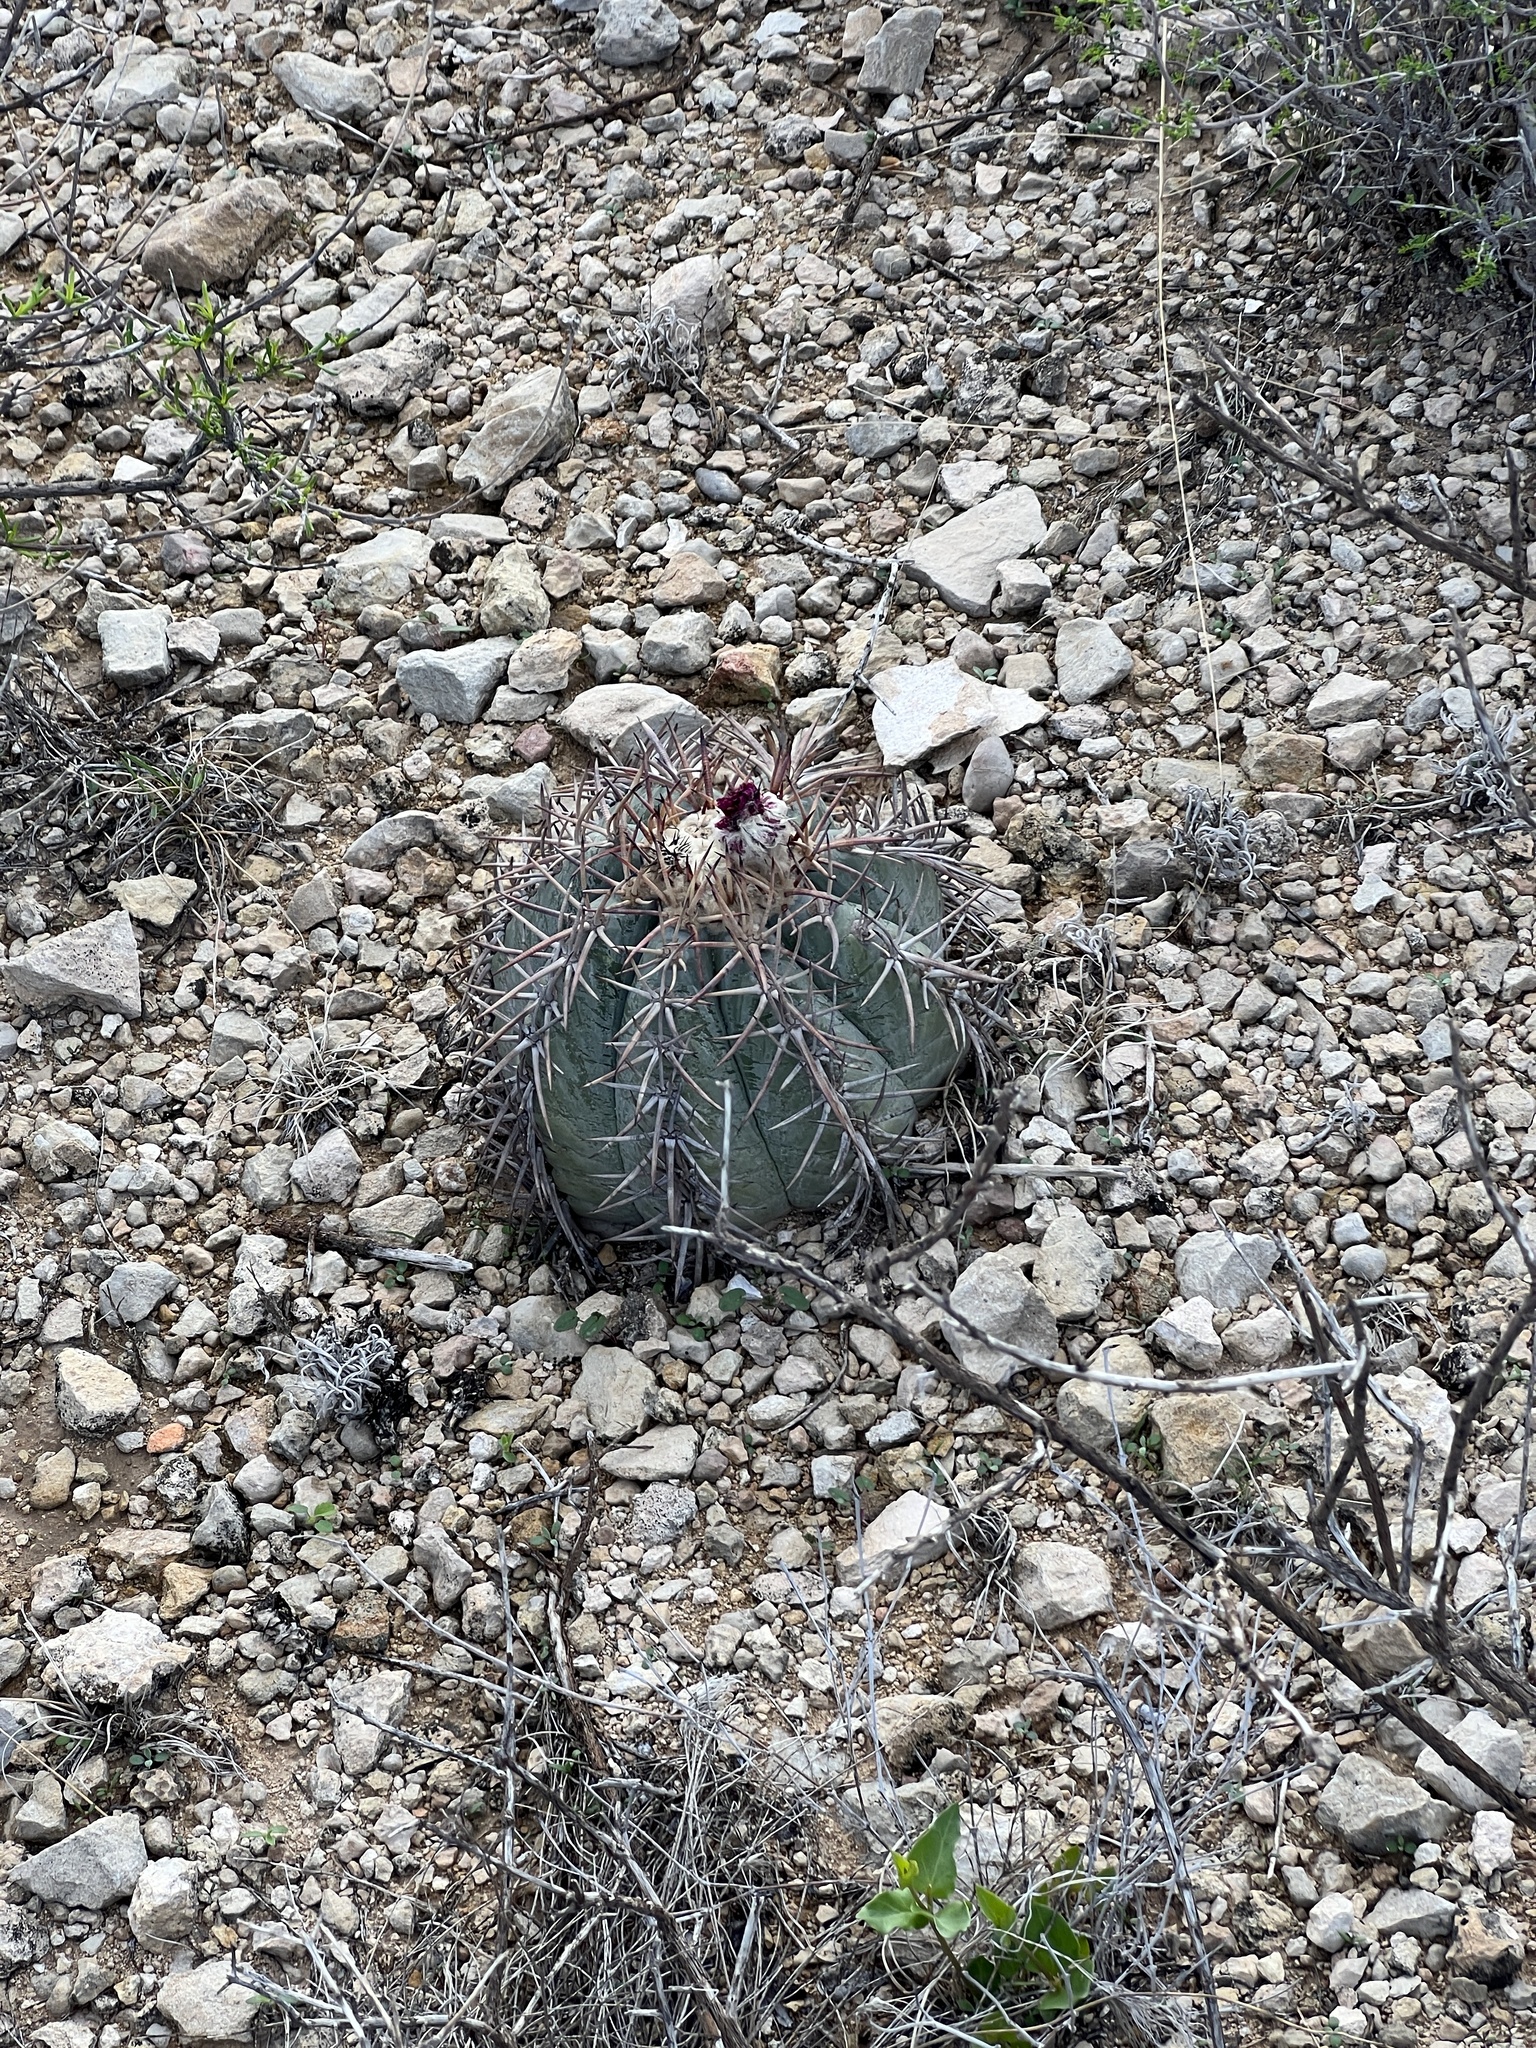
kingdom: Plantae
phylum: Tracheophyta
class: Magnoliopsida
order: Caryophyllales
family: Cactaceae
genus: Echinocactus
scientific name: Echinocactus horizonthalonius
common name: Devilshead
